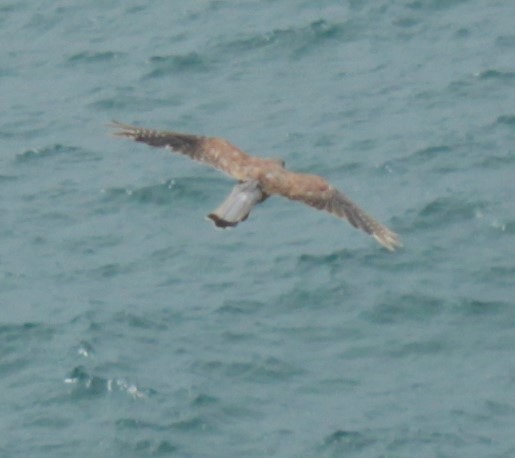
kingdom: Animalia
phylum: Chordata
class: Aves
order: Falconiformes
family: Falconidae
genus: Falco
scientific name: Falco tinnunculus
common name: Common kestrel
